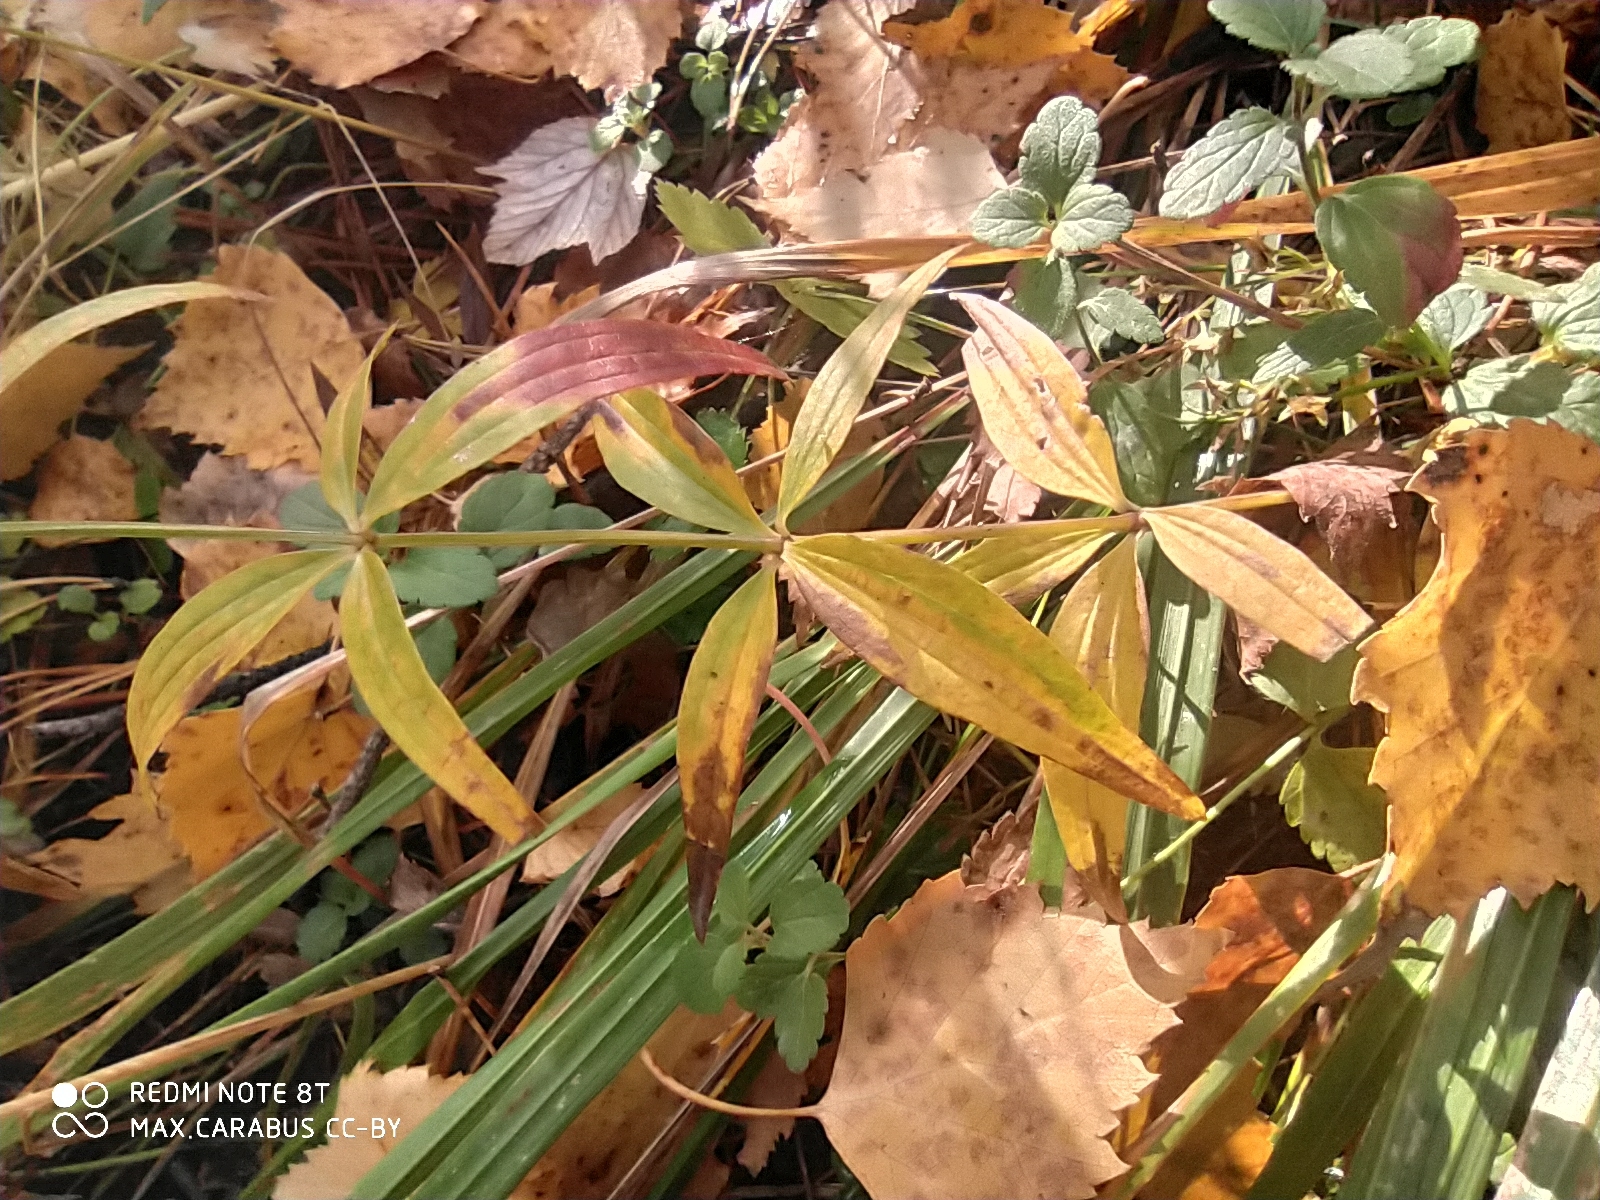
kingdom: Plantae
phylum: Tracheophyta
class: Magnoliopsida
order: Gentianales
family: Rubiaceae
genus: Galium
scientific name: Galium boreale
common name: Northern bedstraw
